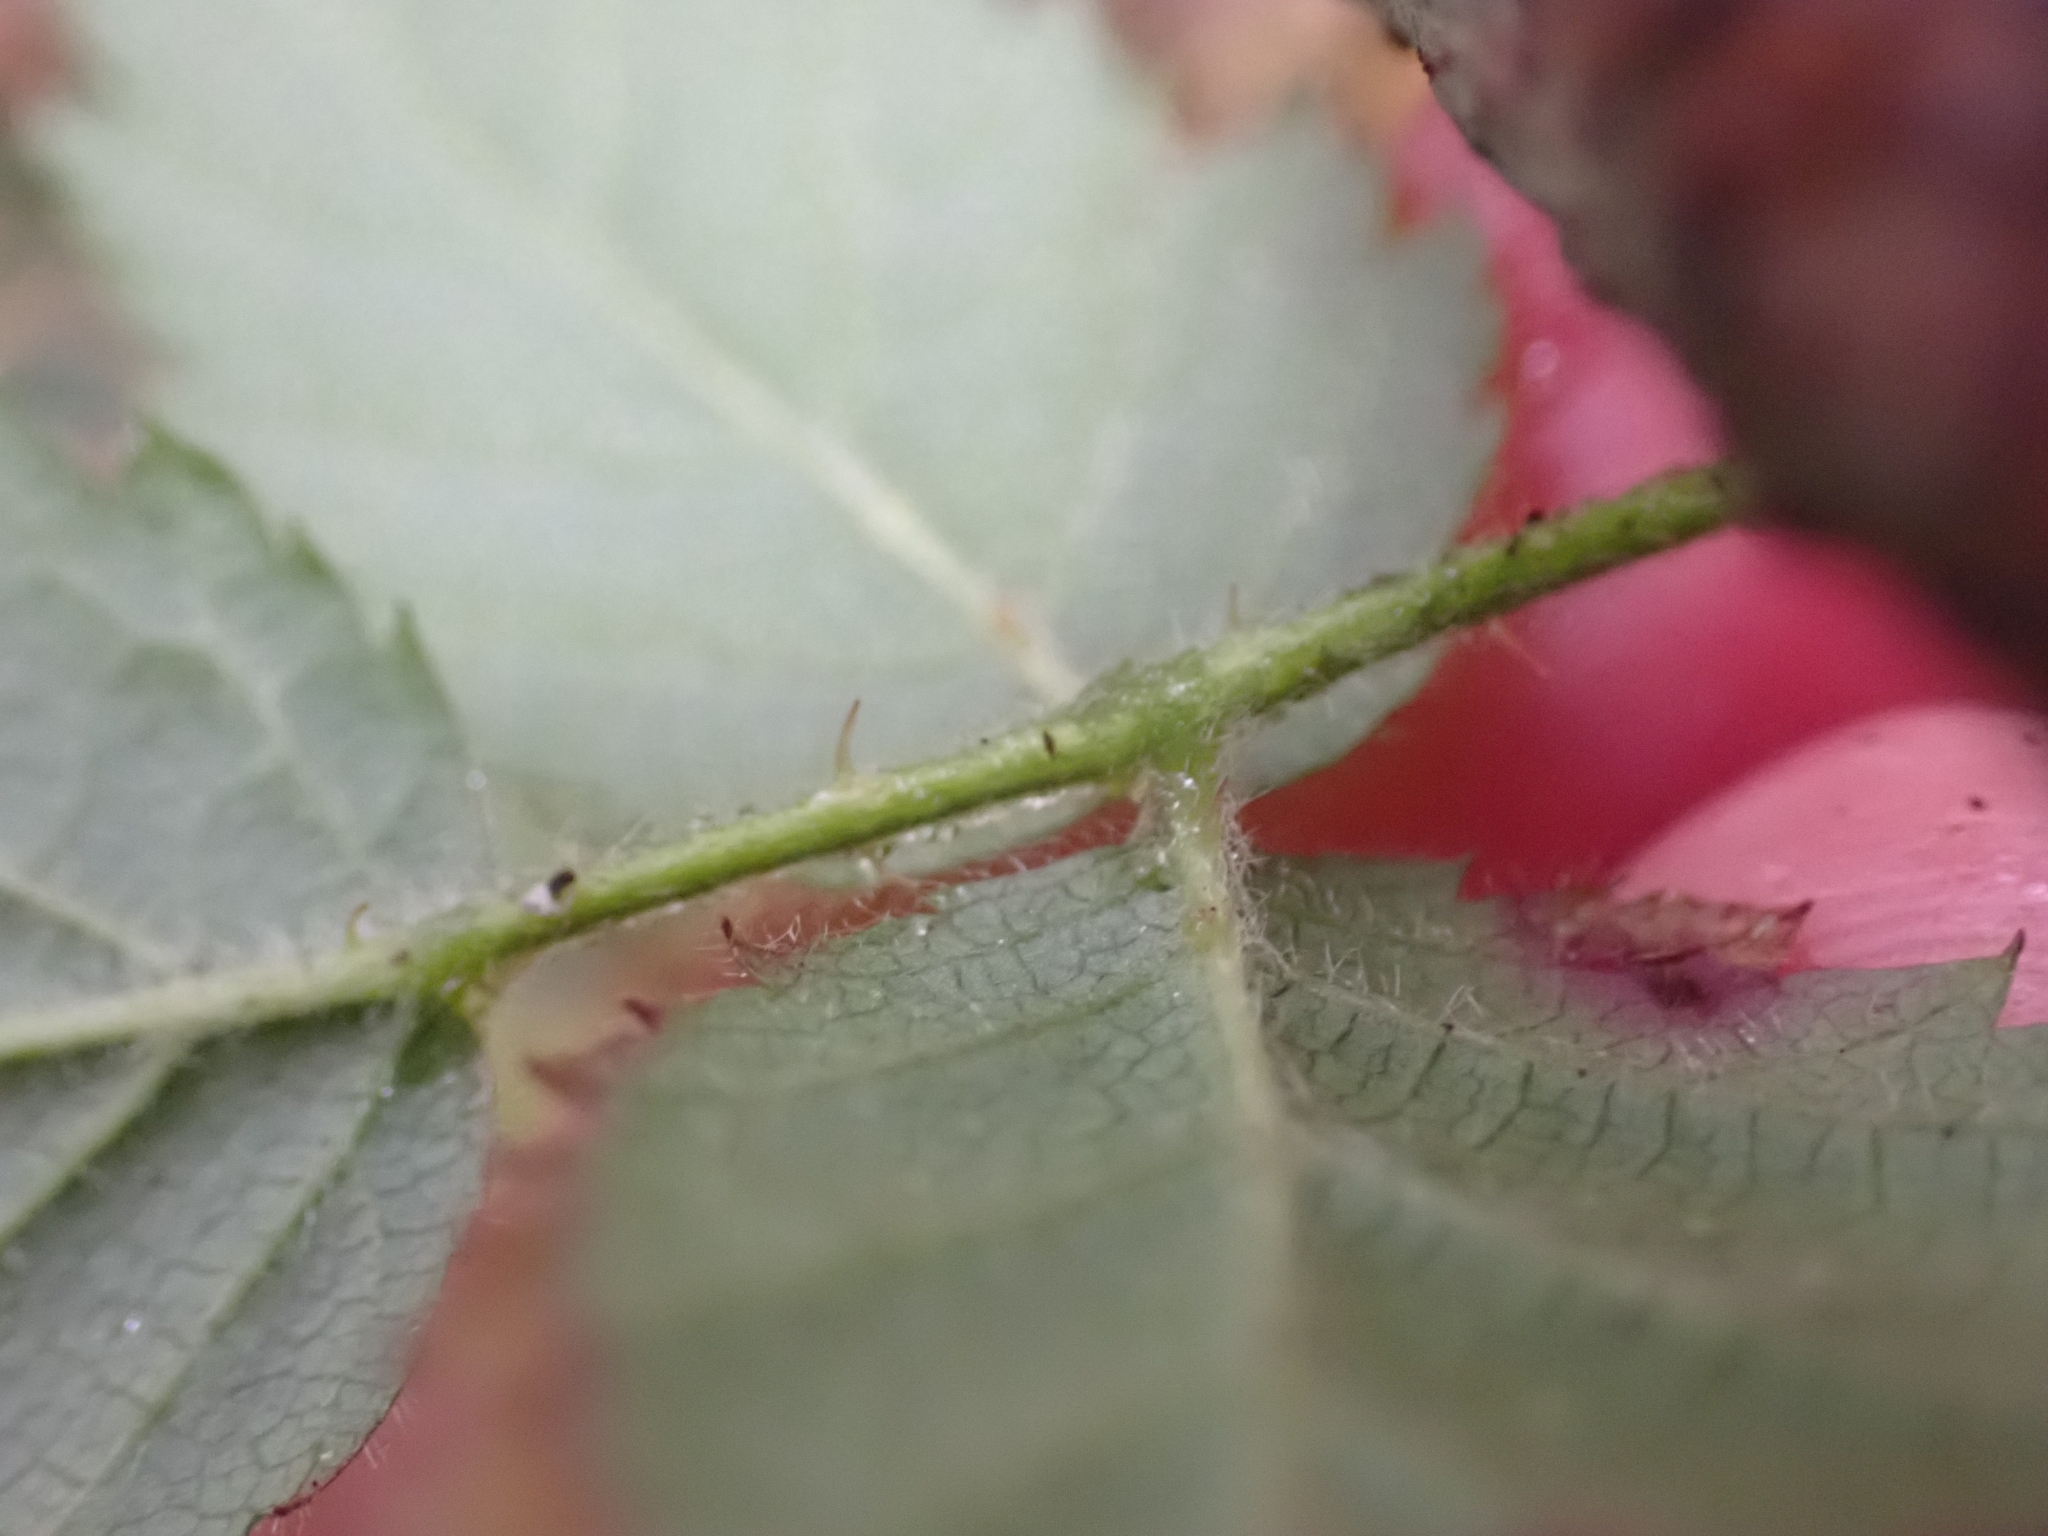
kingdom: Plantae
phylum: Tracheophyta
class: Magnoliopsida
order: Rosales
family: Rosaceae
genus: Rubus
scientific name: Rubus ursinus
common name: Pacific blackberry
